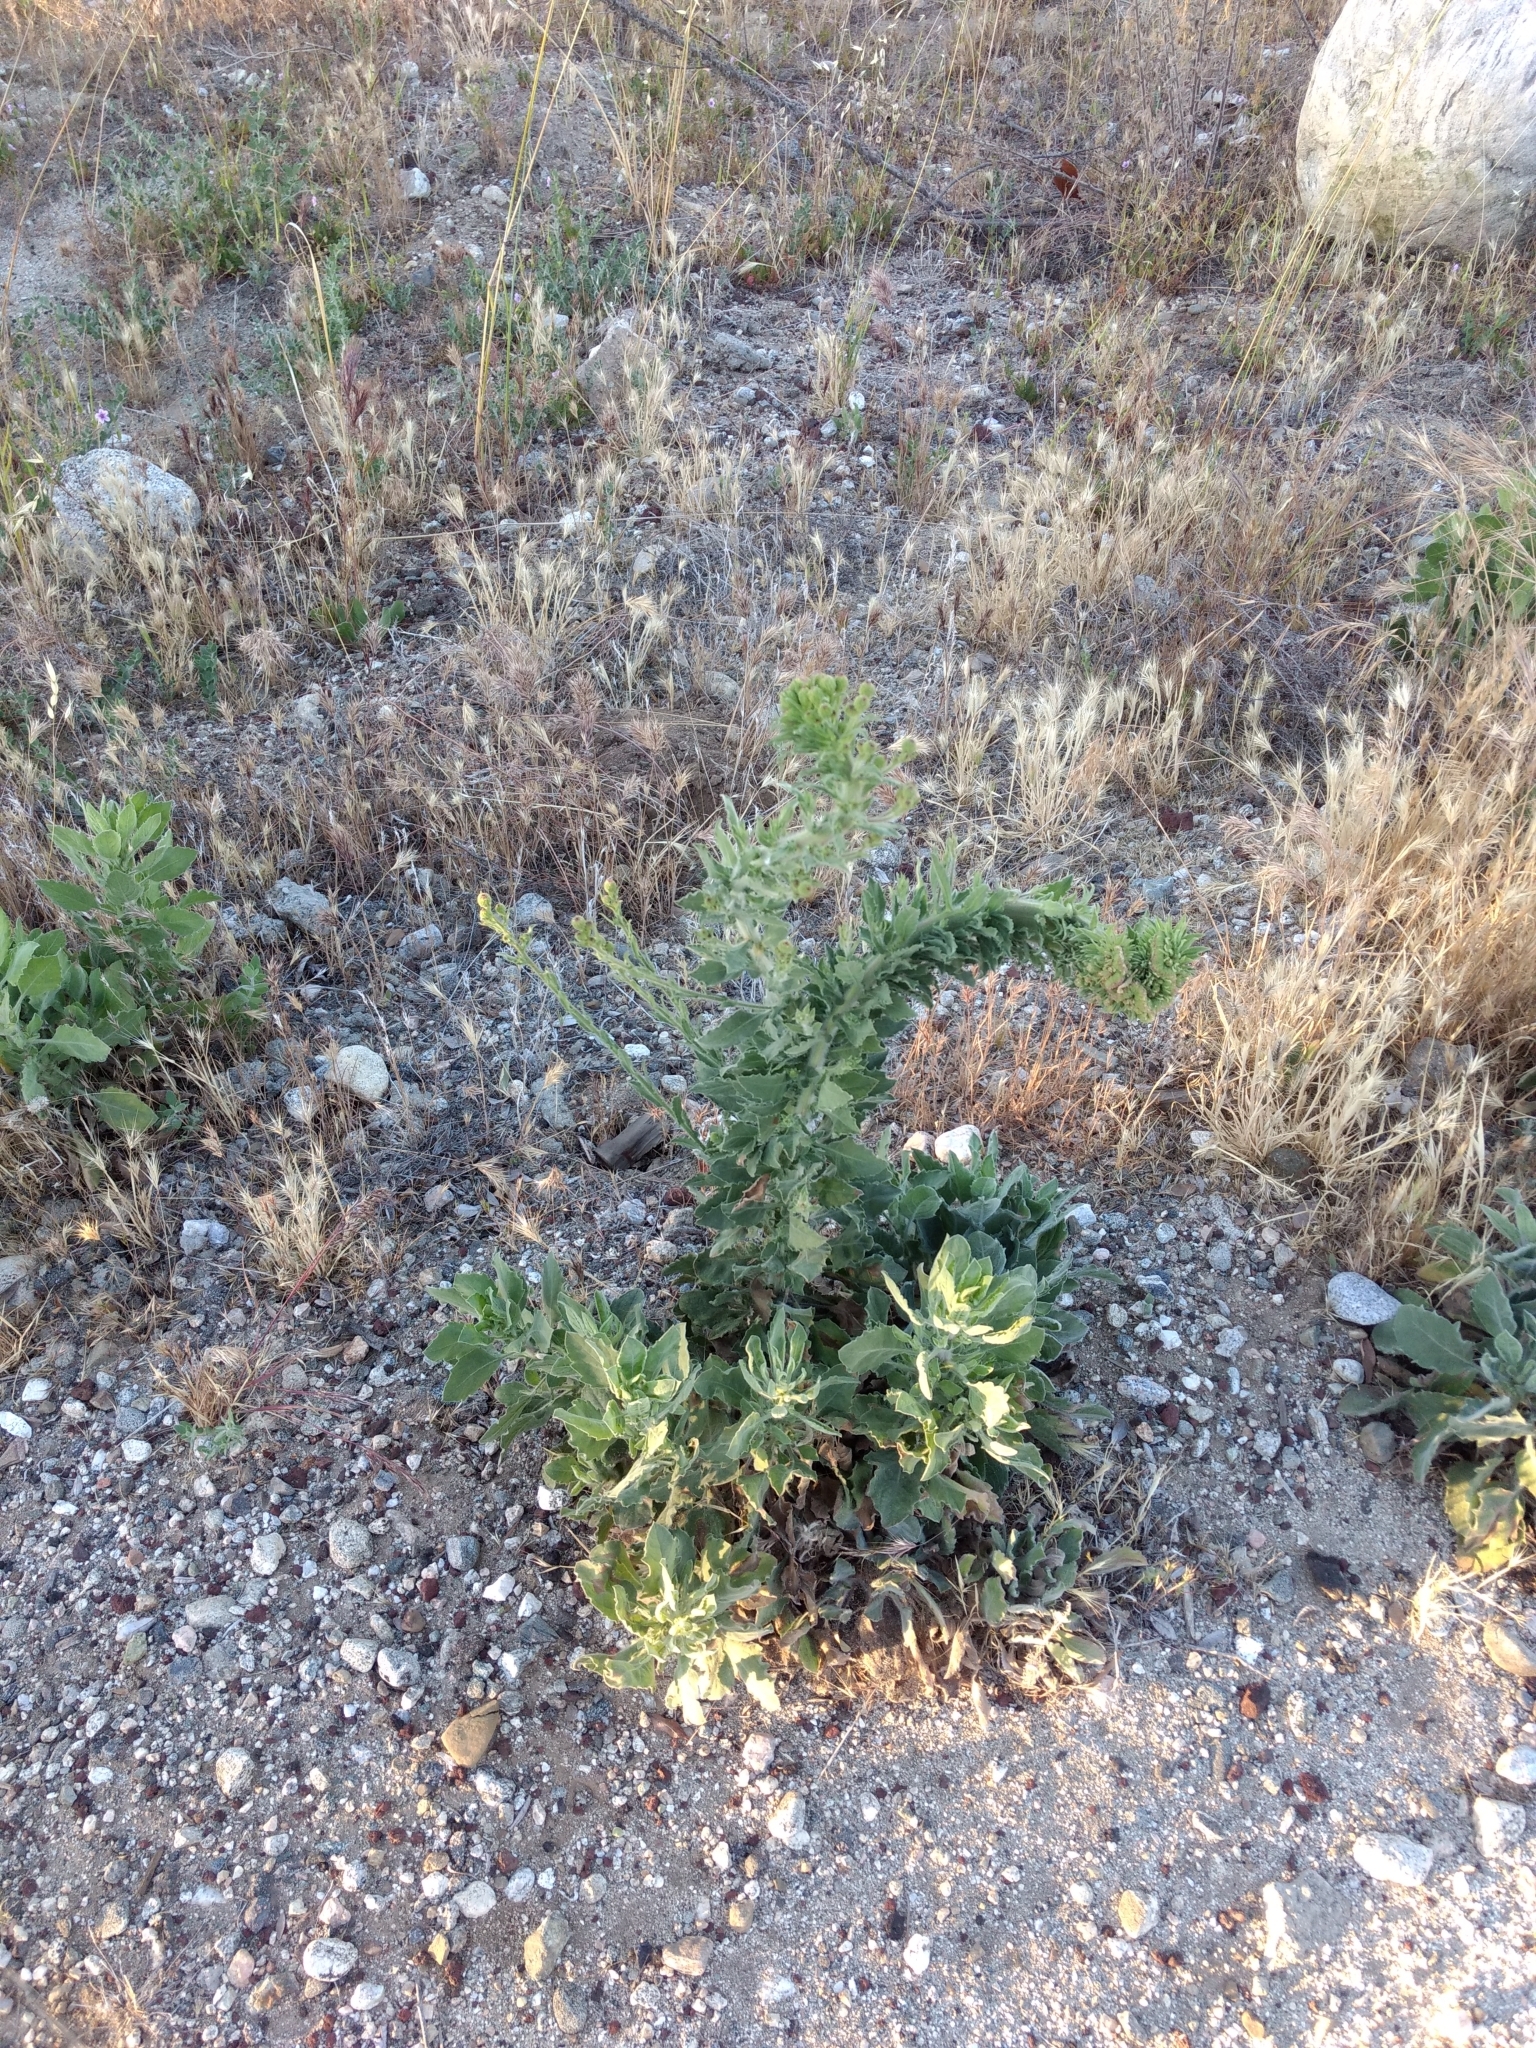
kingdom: Plantae
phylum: Tracheophyta
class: Magnoliopsida
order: Asterales
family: Asteraceae
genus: Heterotheca
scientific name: Heterotheca grandiflora
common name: Telegraphweed
